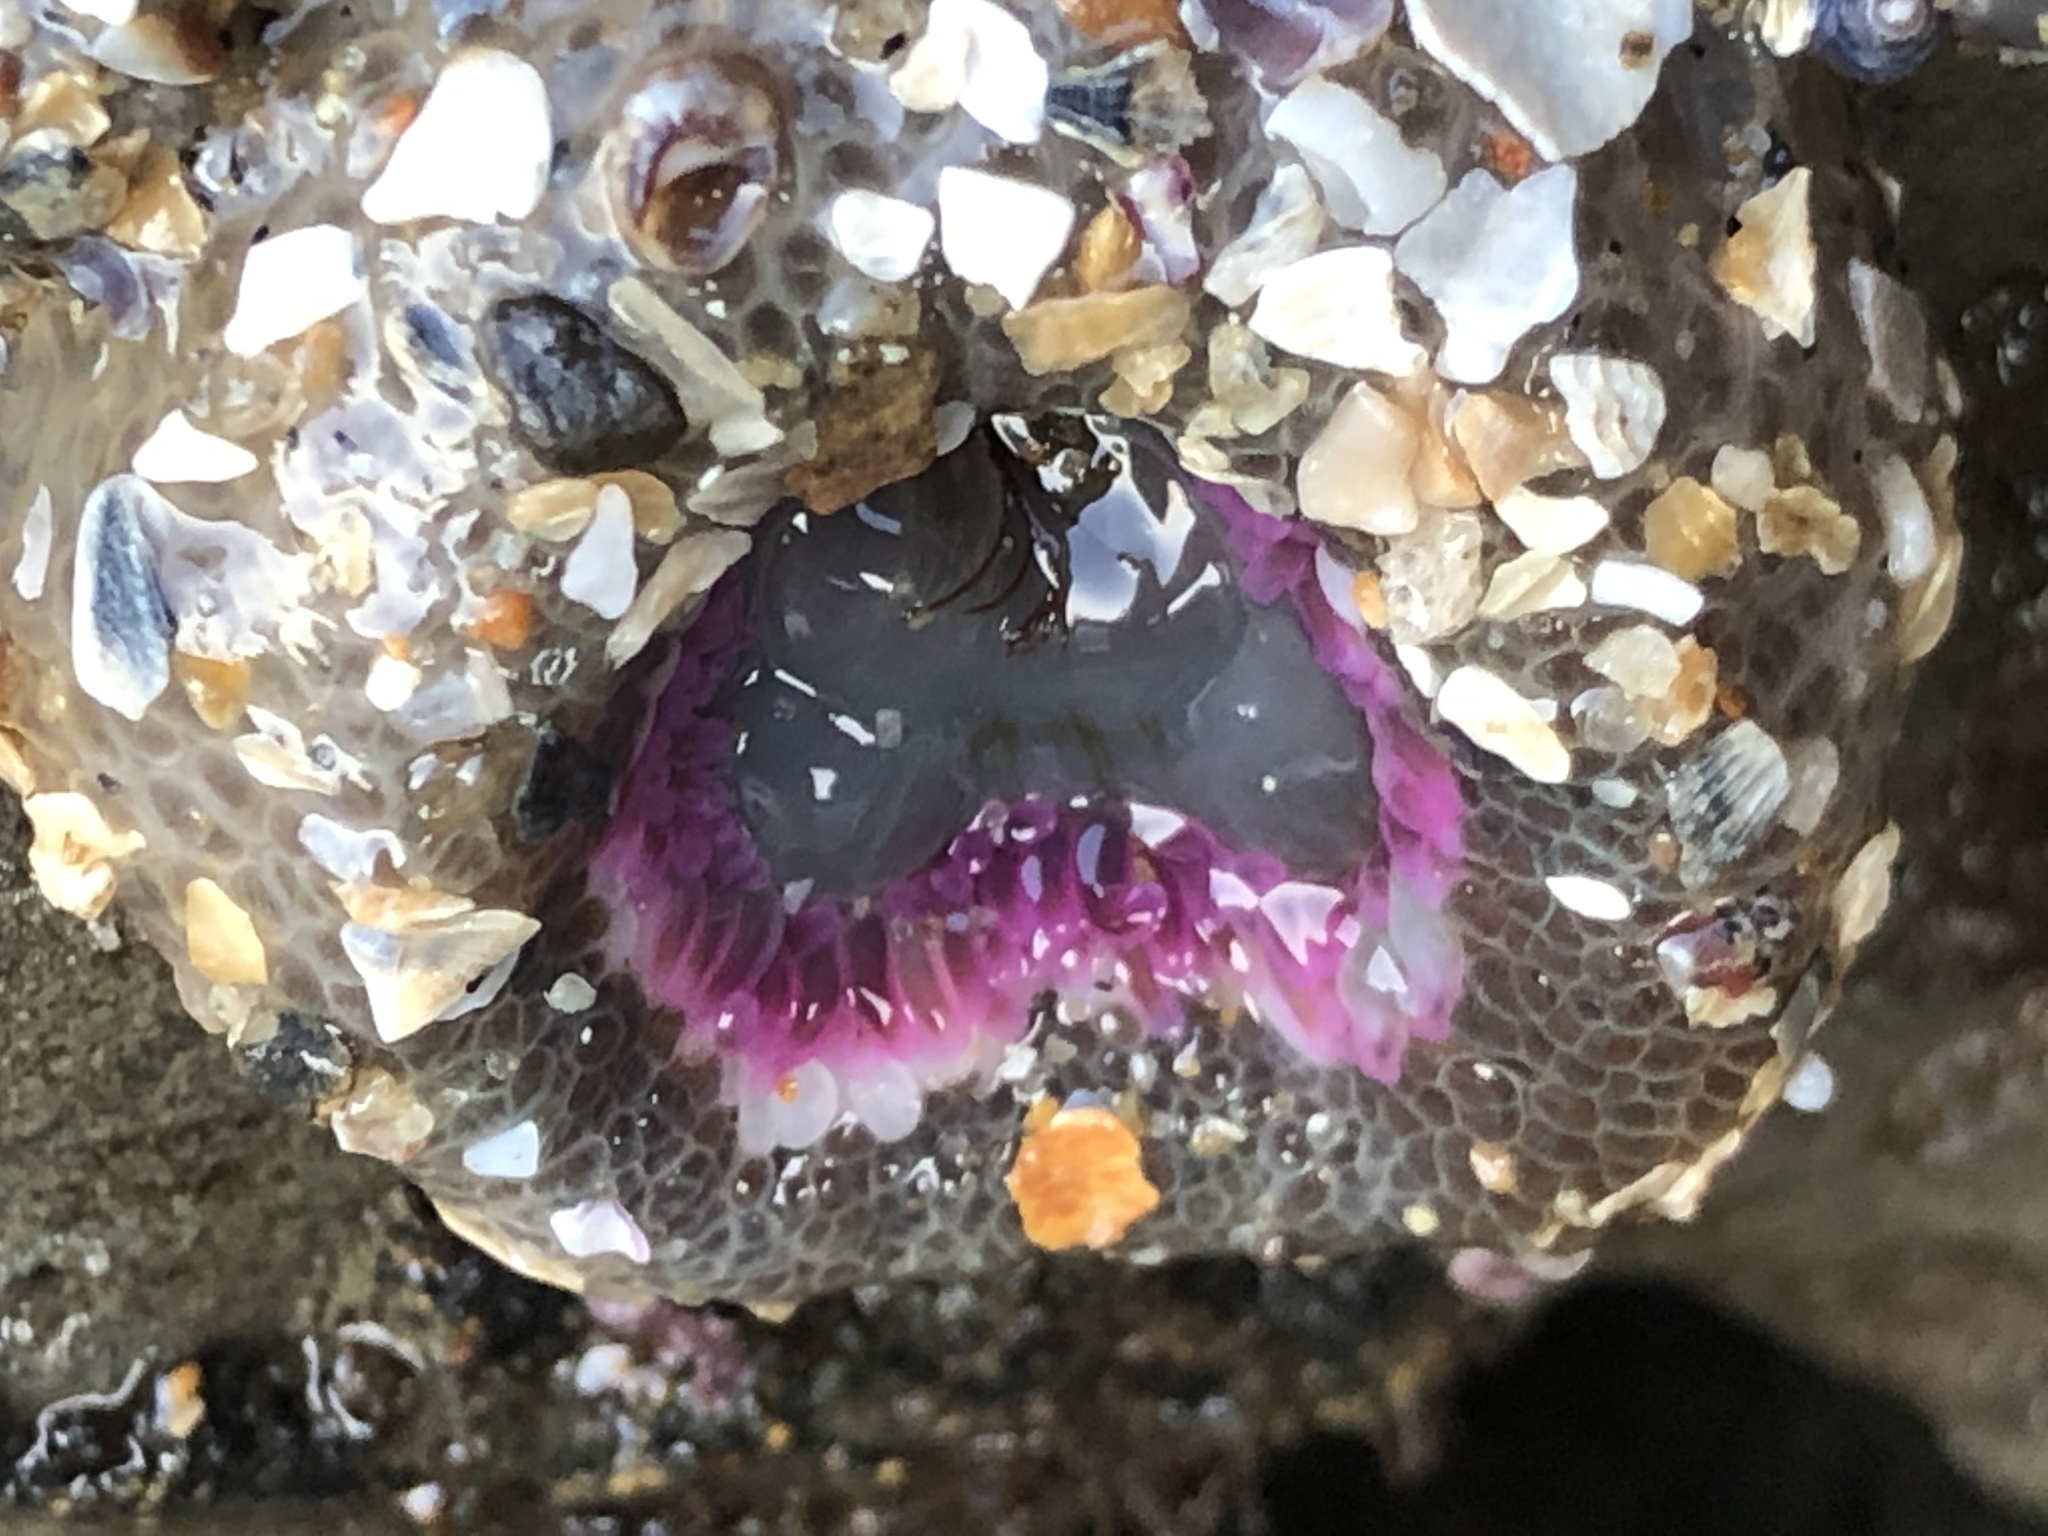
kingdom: Animalia
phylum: Cnidaria
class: Anthozoa
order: Actiniaria
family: Actiniidae
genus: Anthopleura
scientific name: Anthopleura elegantissima
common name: Clonal anemone
